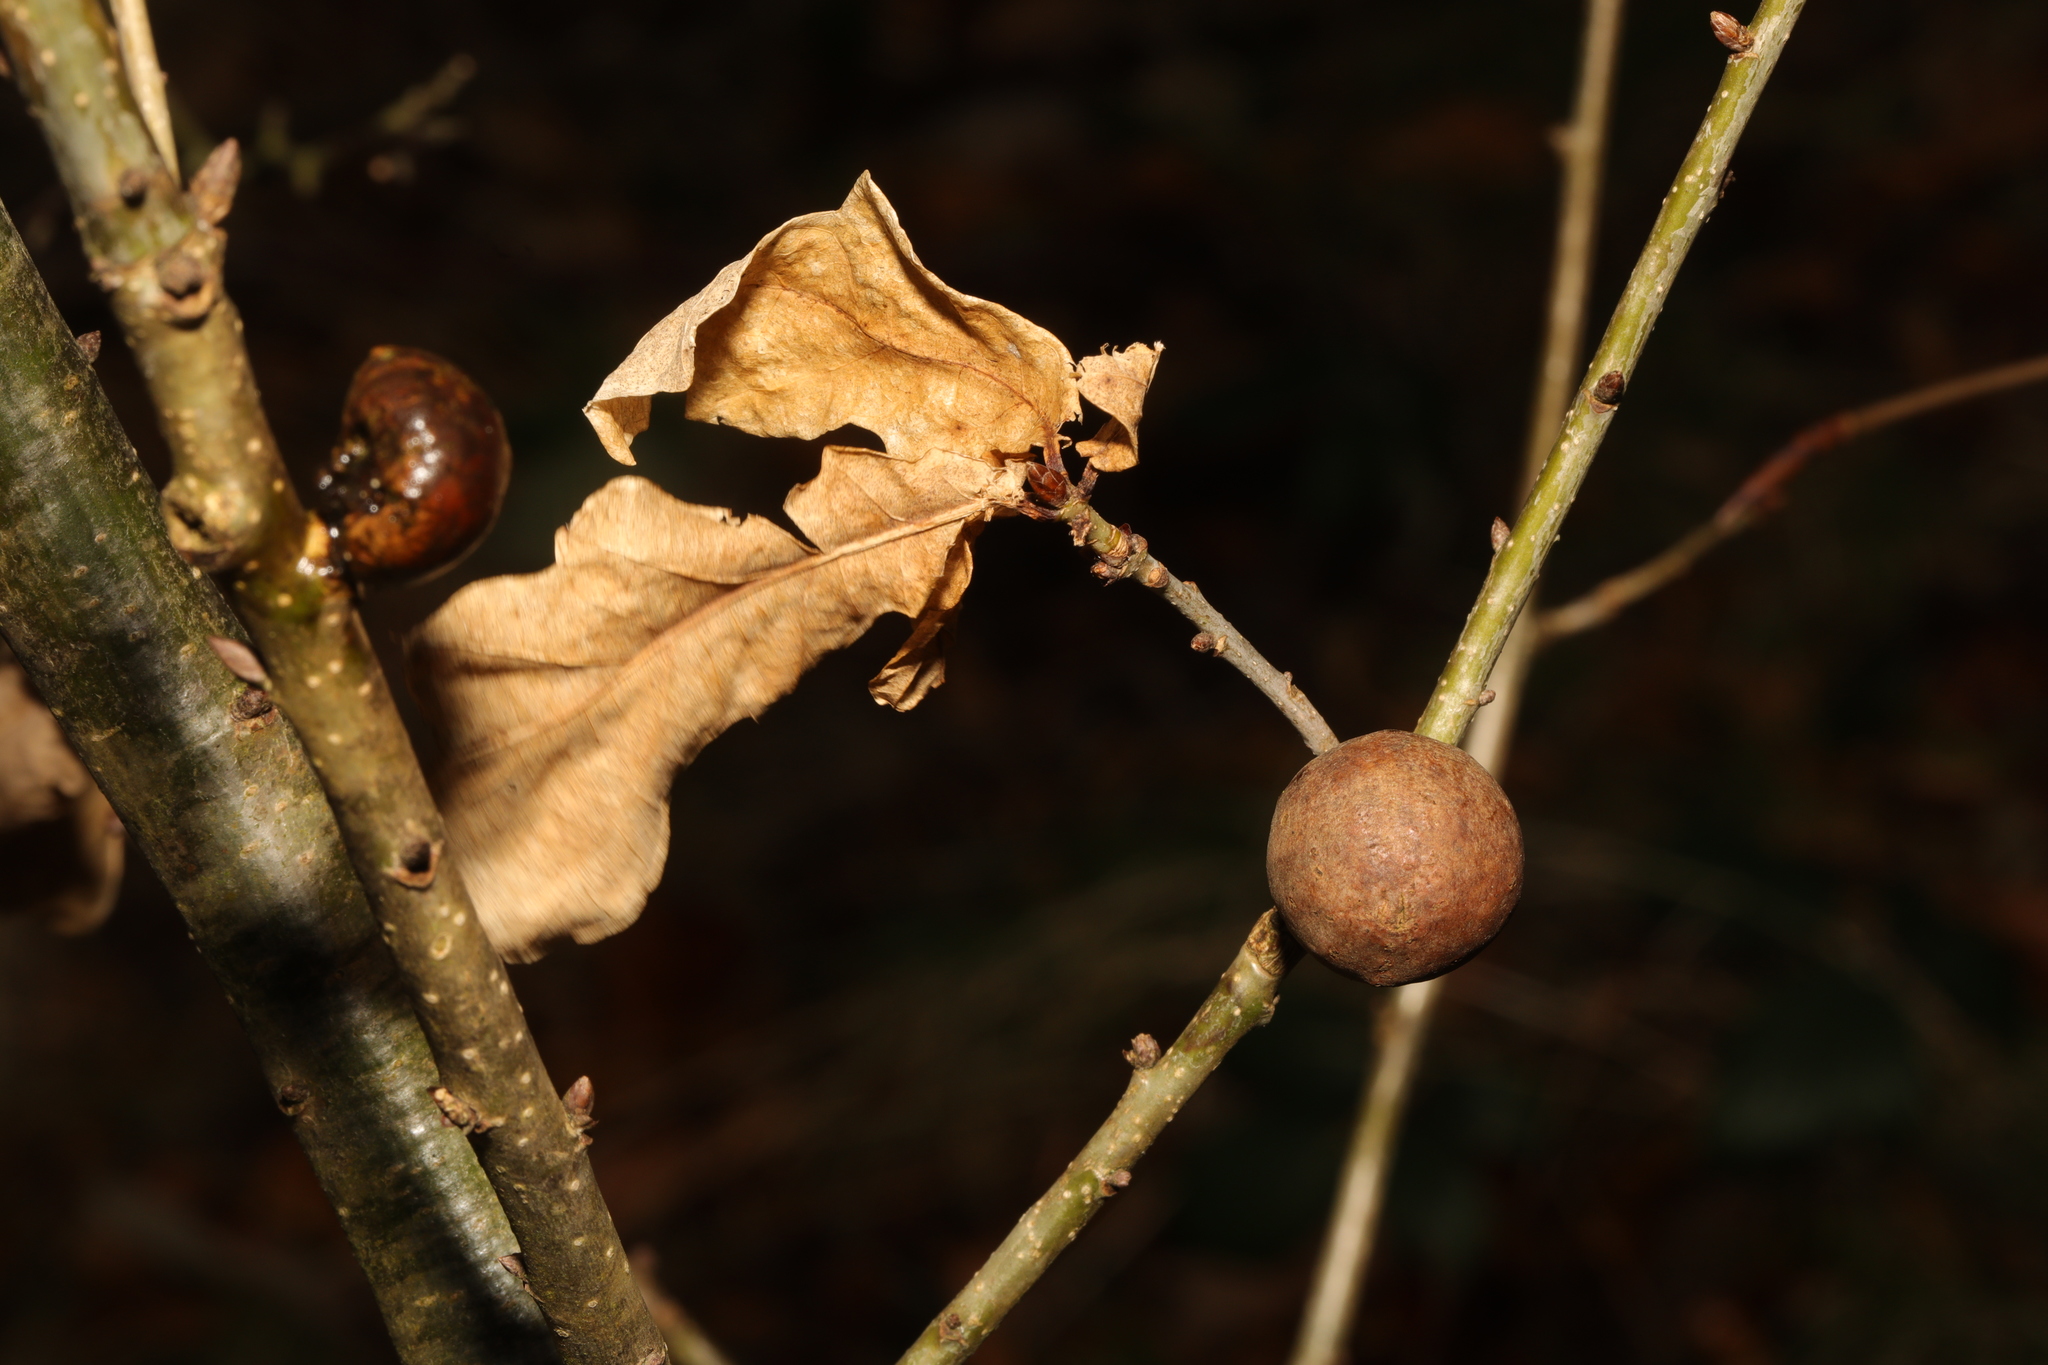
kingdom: Animalia
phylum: Arthropoda
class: Insecta
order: Hymenoptera
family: Cynipidae
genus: Andricus
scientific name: Andricus kollari
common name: Marble gall
